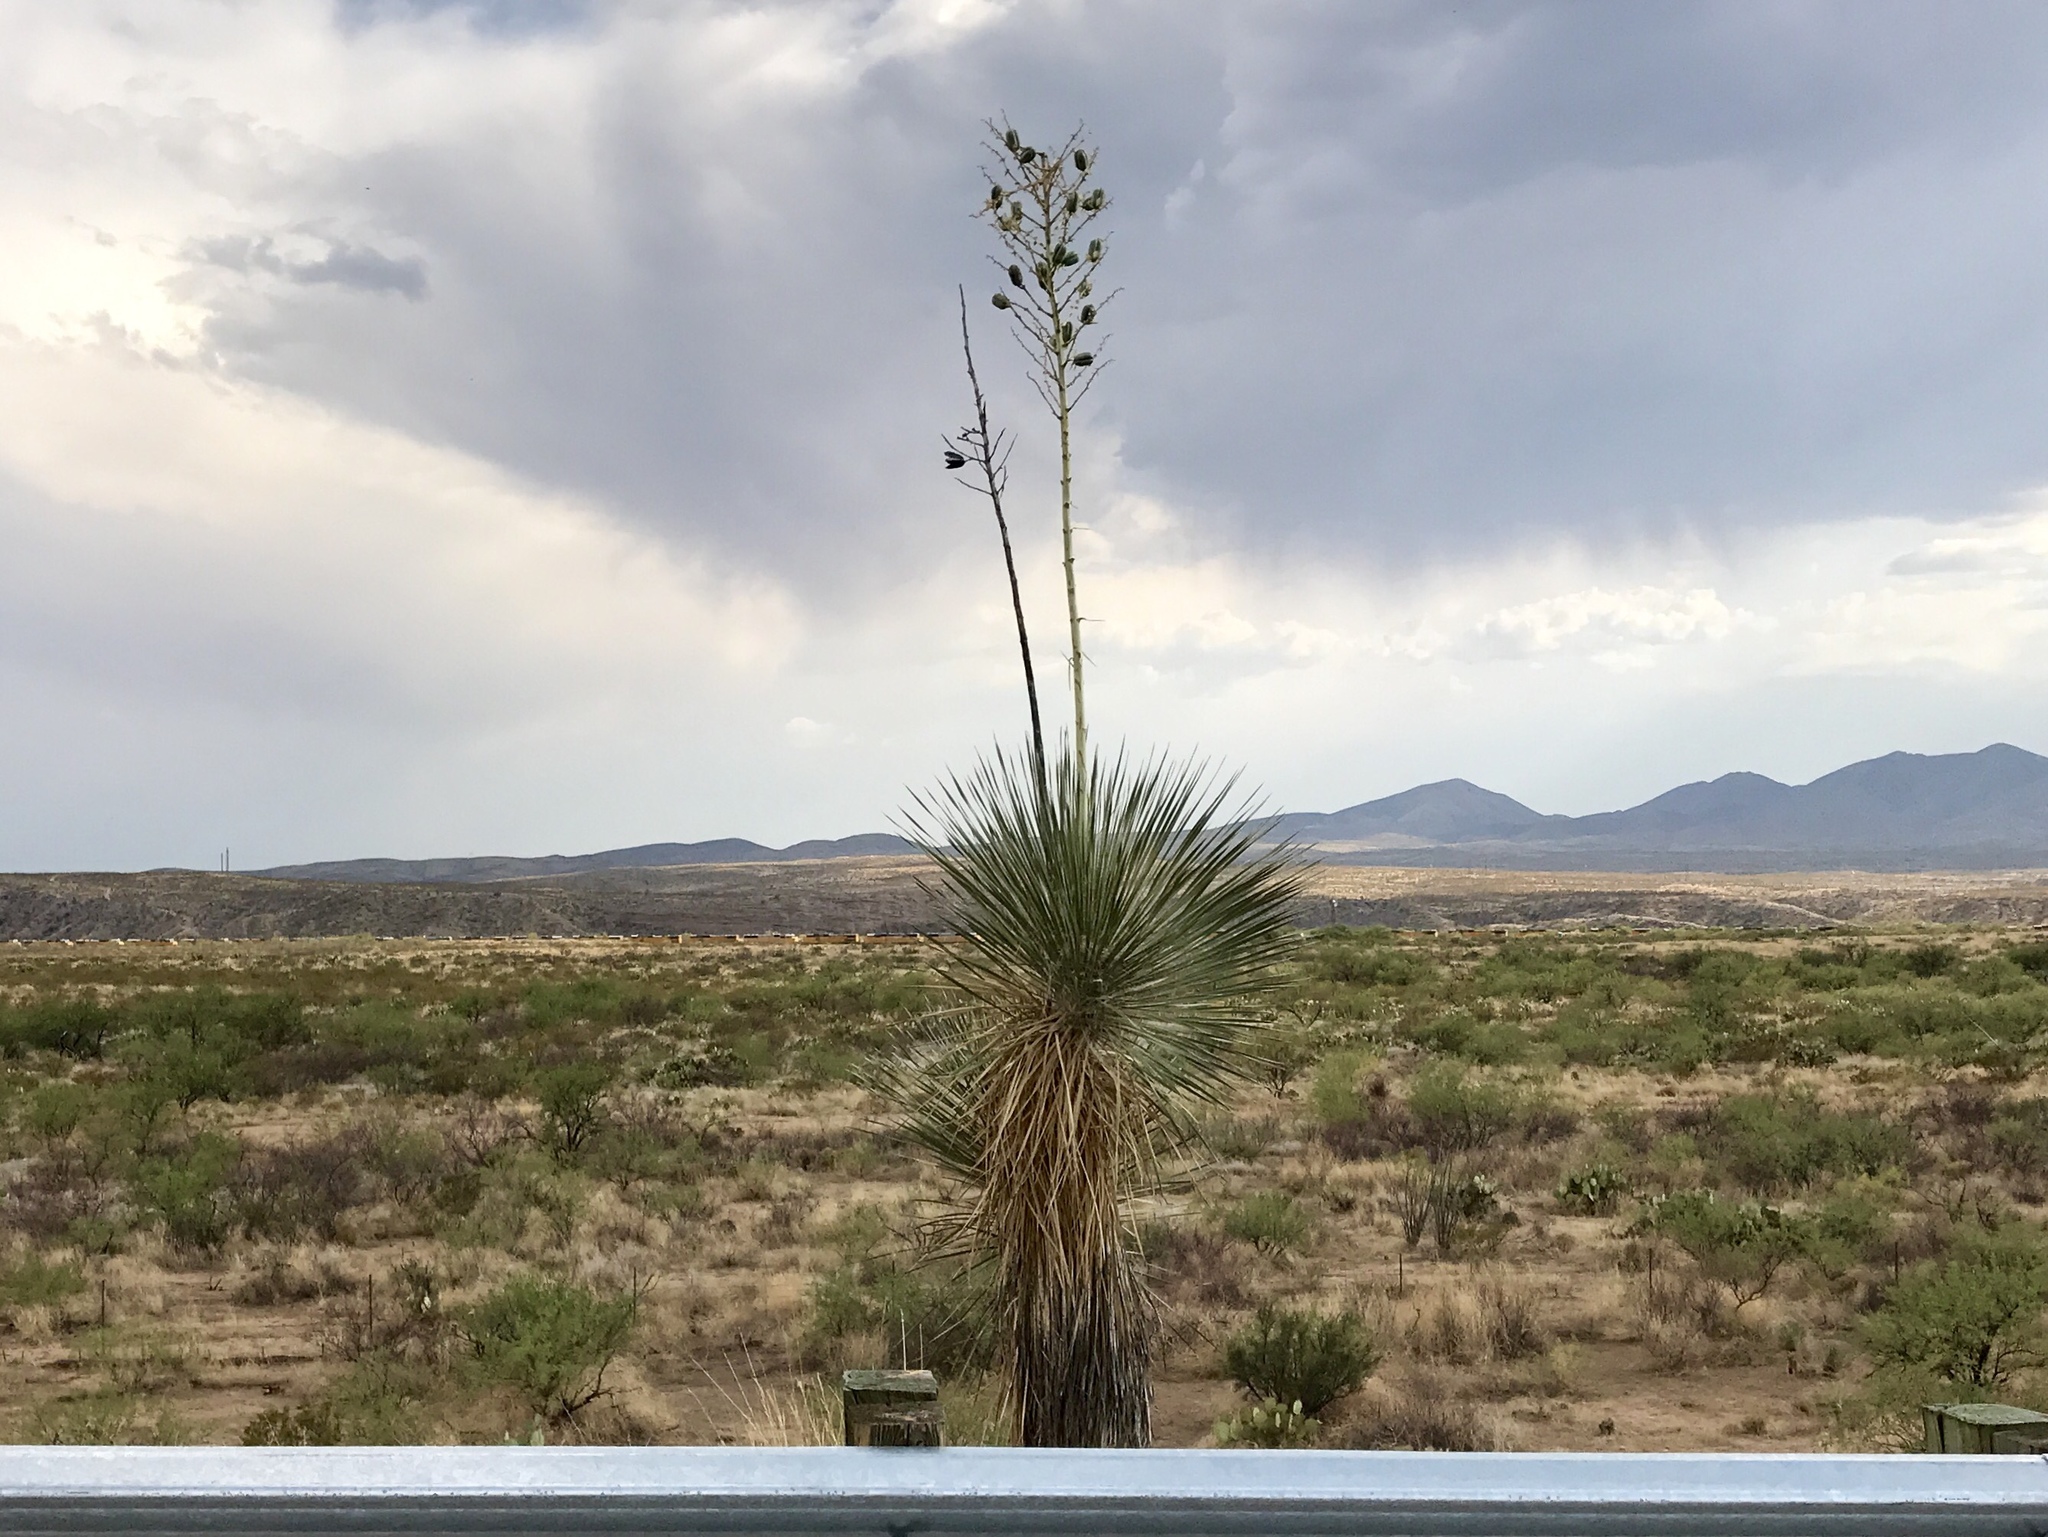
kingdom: Plantae
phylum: Tracheophyta
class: Liliopsida
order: Asparagales
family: Asparagaceae
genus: Yucca
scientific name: Yucca elata
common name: Palmella
